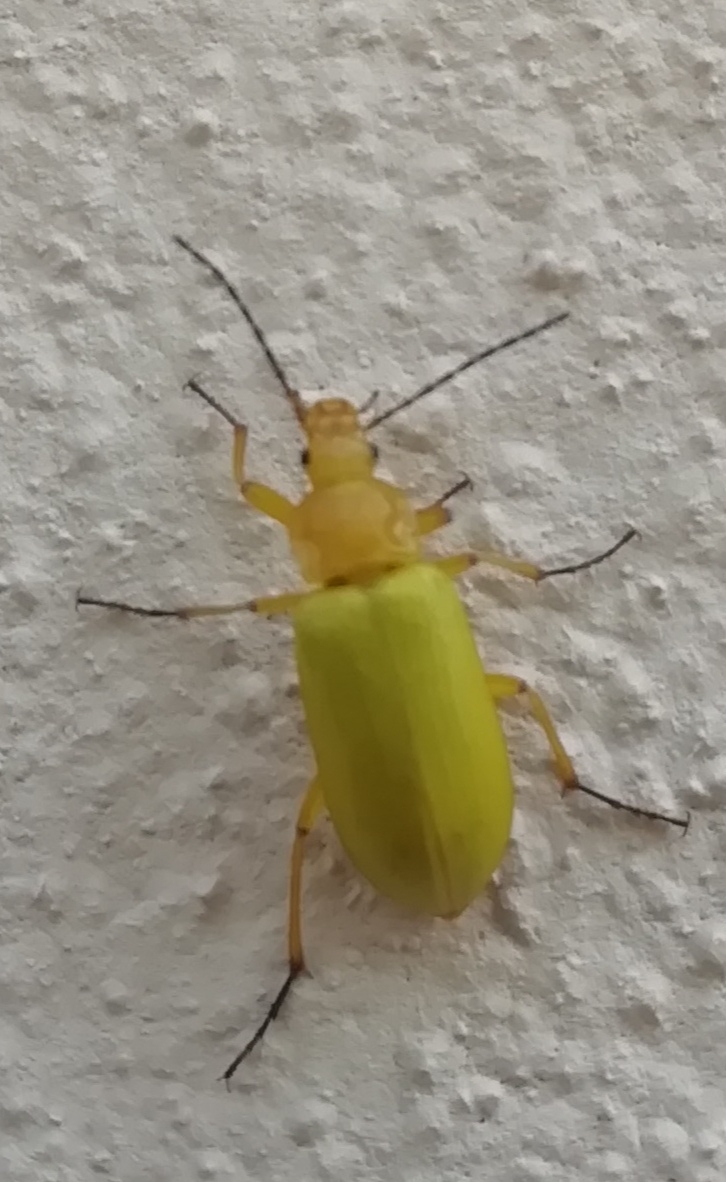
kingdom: Animalia
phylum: Arthropoda
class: Insecta
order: Coleoptera
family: Tenebrionidae
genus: Cteniopus
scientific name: Cteniopus sulphureus
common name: Sulphur beetle
